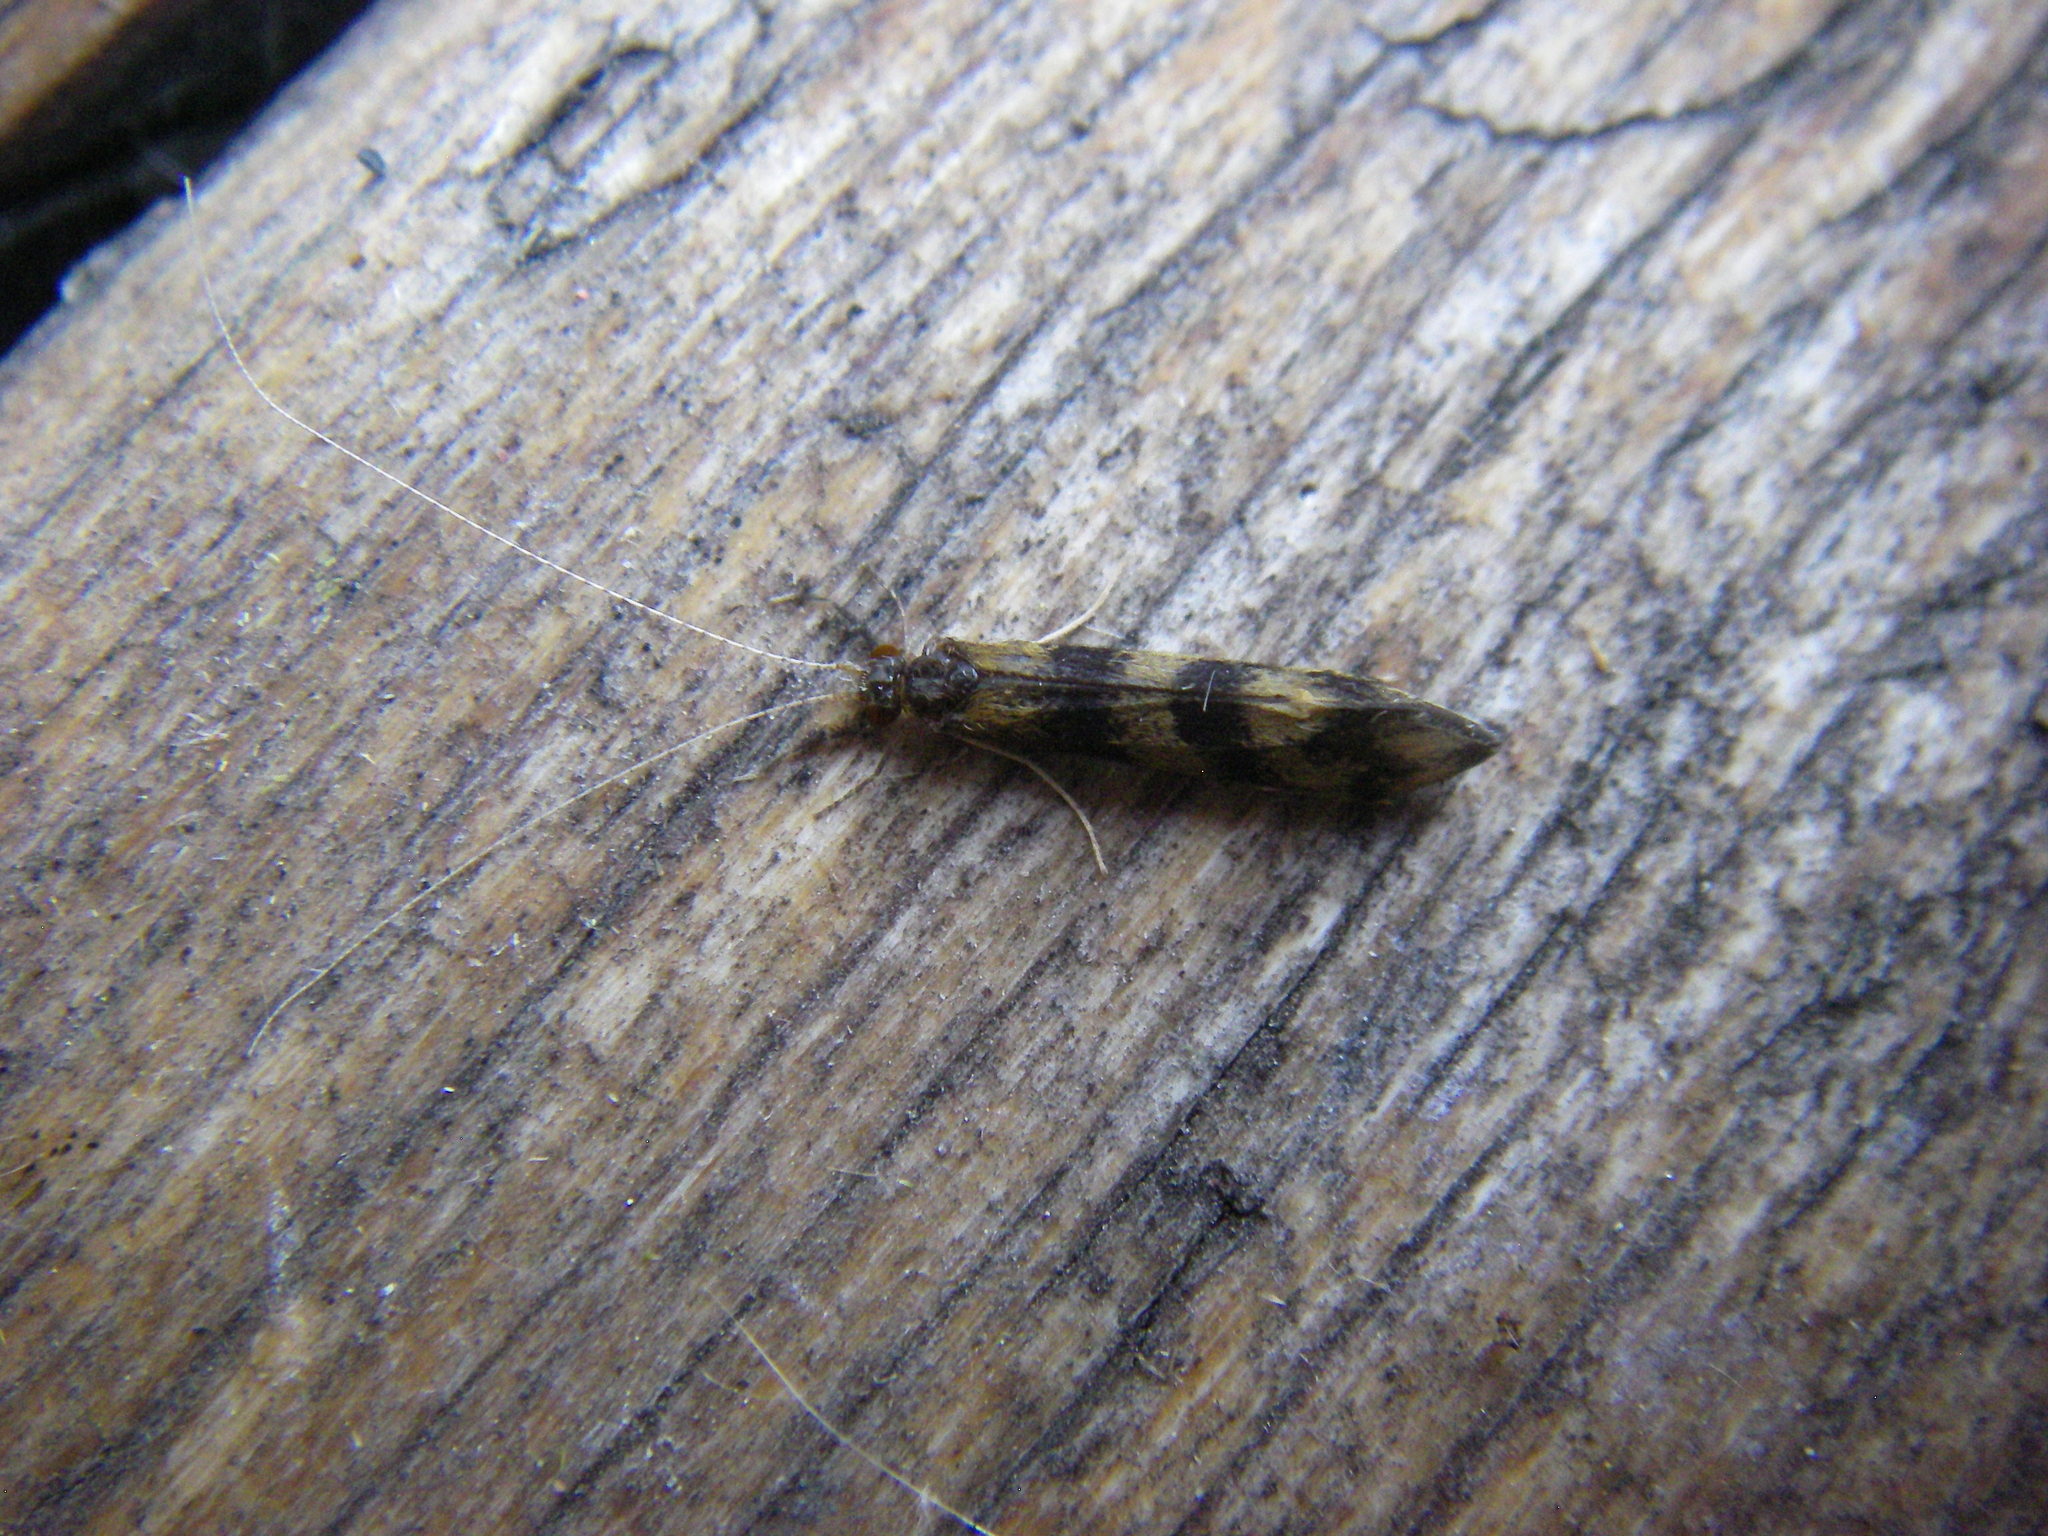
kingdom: Animalia
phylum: Arthropoda
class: Insecta
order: Trichoptera
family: Leptoceridae
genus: Mystacides
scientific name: Mystacides longicornis
